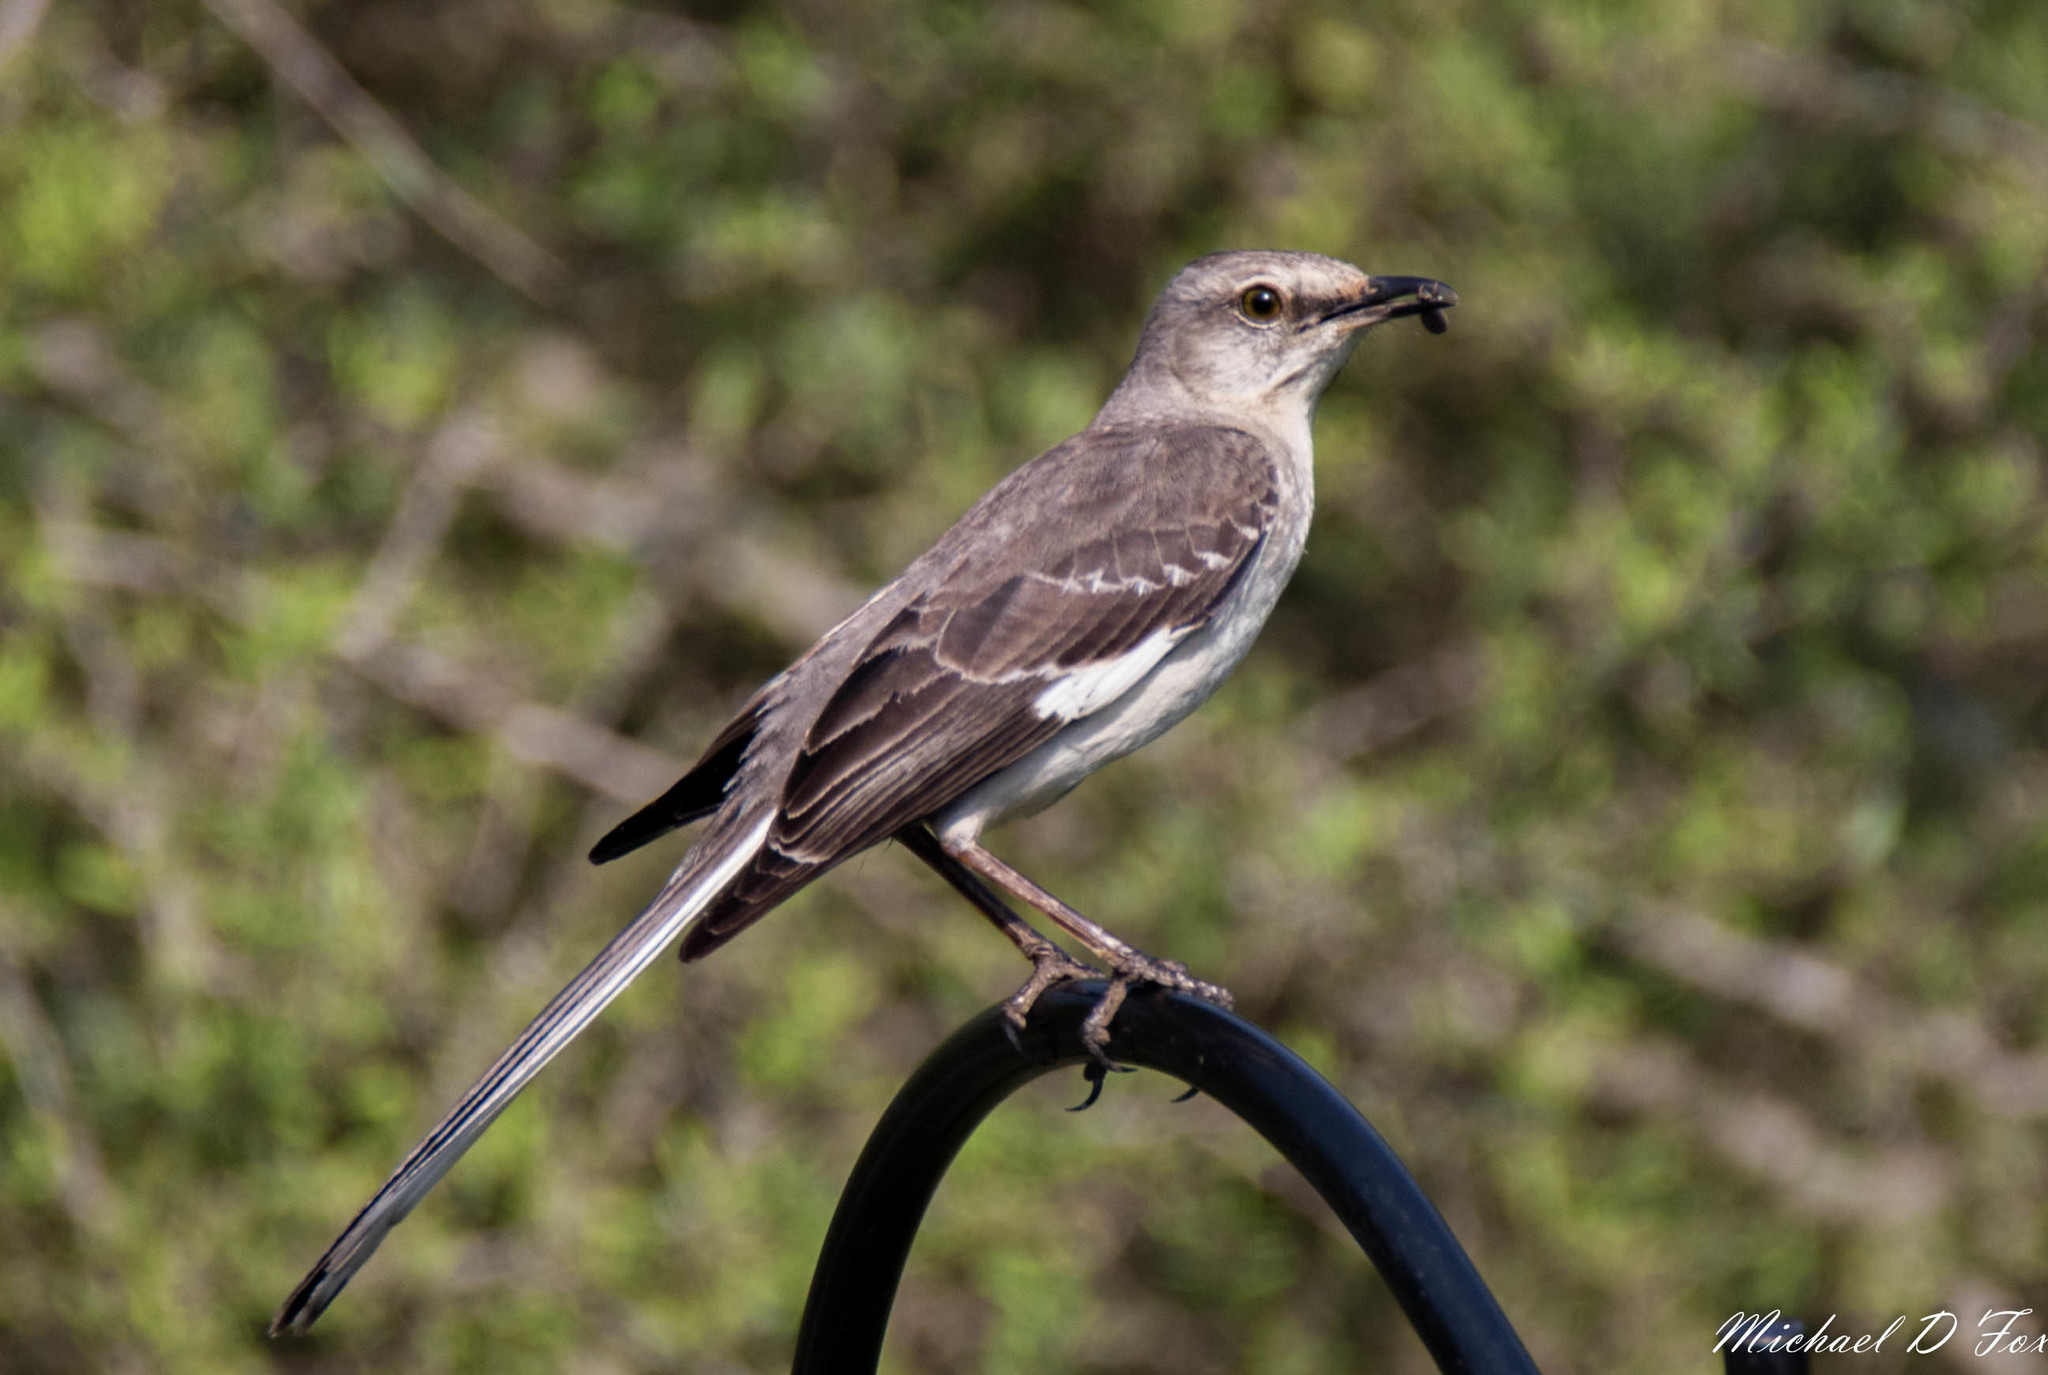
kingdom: Animalia
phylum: Chordata
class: Aves
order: Passeriformes
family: Mimidae
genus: Mimus
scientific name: Mimus polyglottos
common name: Northern mockingbird
